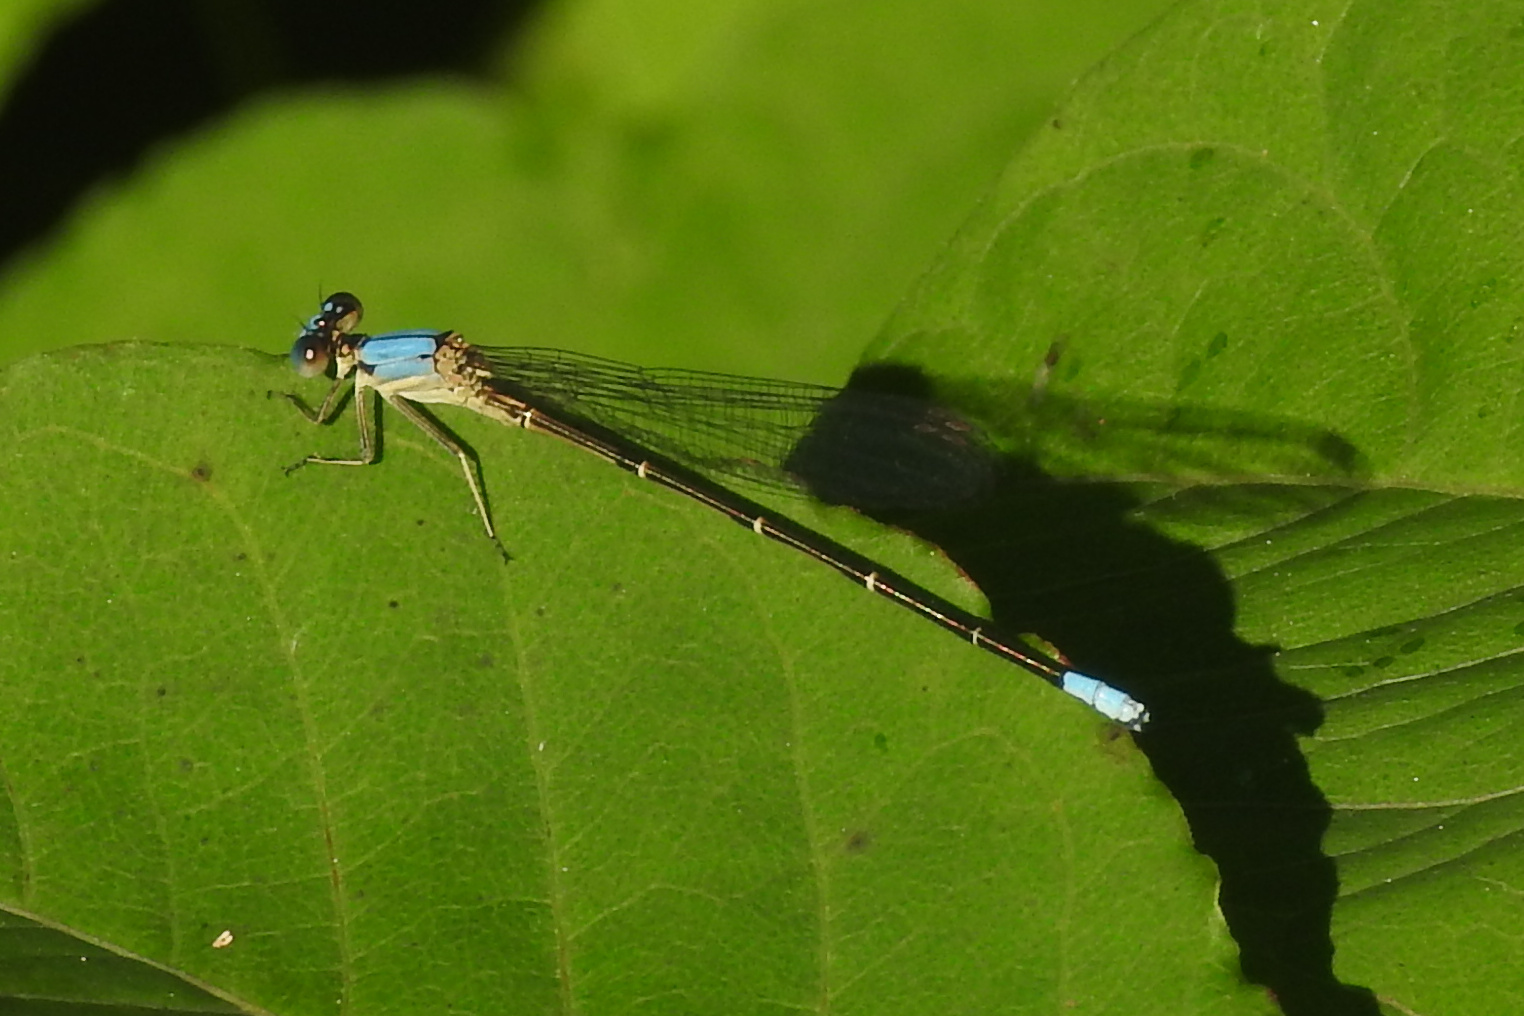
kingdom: Animalia
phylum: Arthropoda
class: Insecta
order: Odonata
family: Coenagrionidae
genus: Argia
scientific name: Argia apicalis
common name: Blue-fronted dancer
